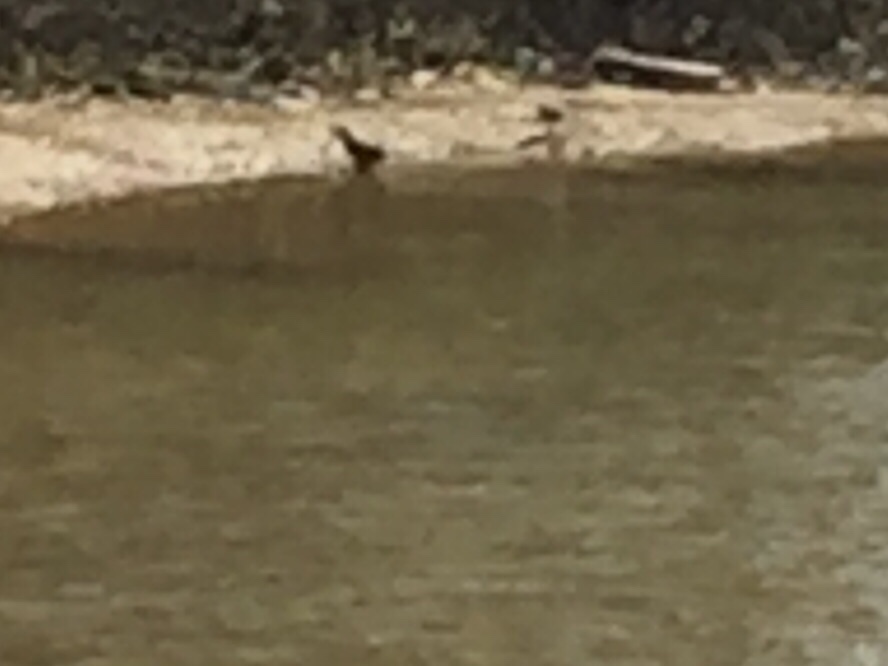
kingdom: Animalia
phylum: Chordata
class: Aves
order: Gruiformes
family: Rallidae
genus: Gallirallus
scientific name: Gallirallus philippensis
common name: Buff-banded rail
